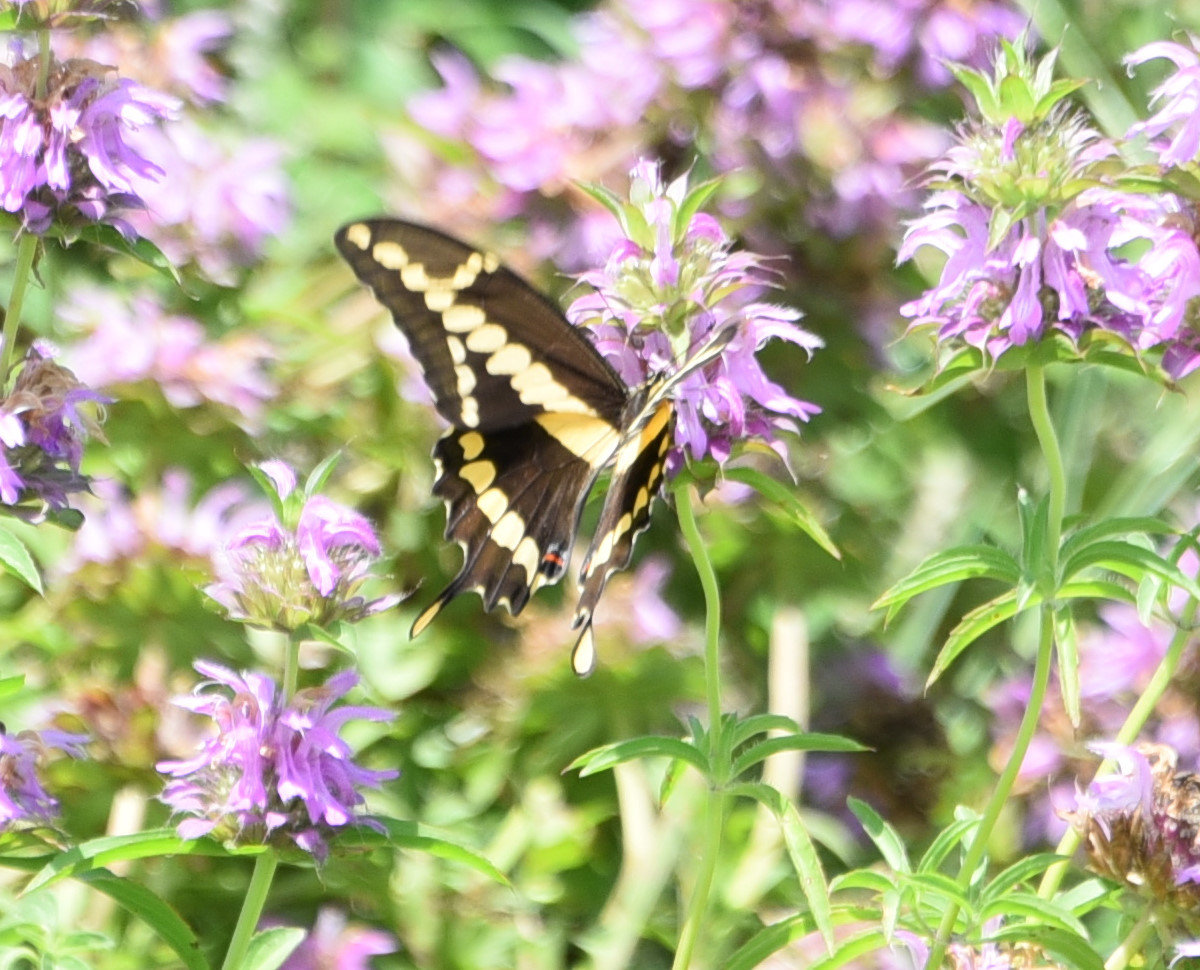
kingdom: Animalia
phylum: Arthropoda
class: Insecta
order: Lepidoptera
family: Papilionidae
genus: Papilio
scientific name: Papilio rumiko
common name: Western giant swallowtail
